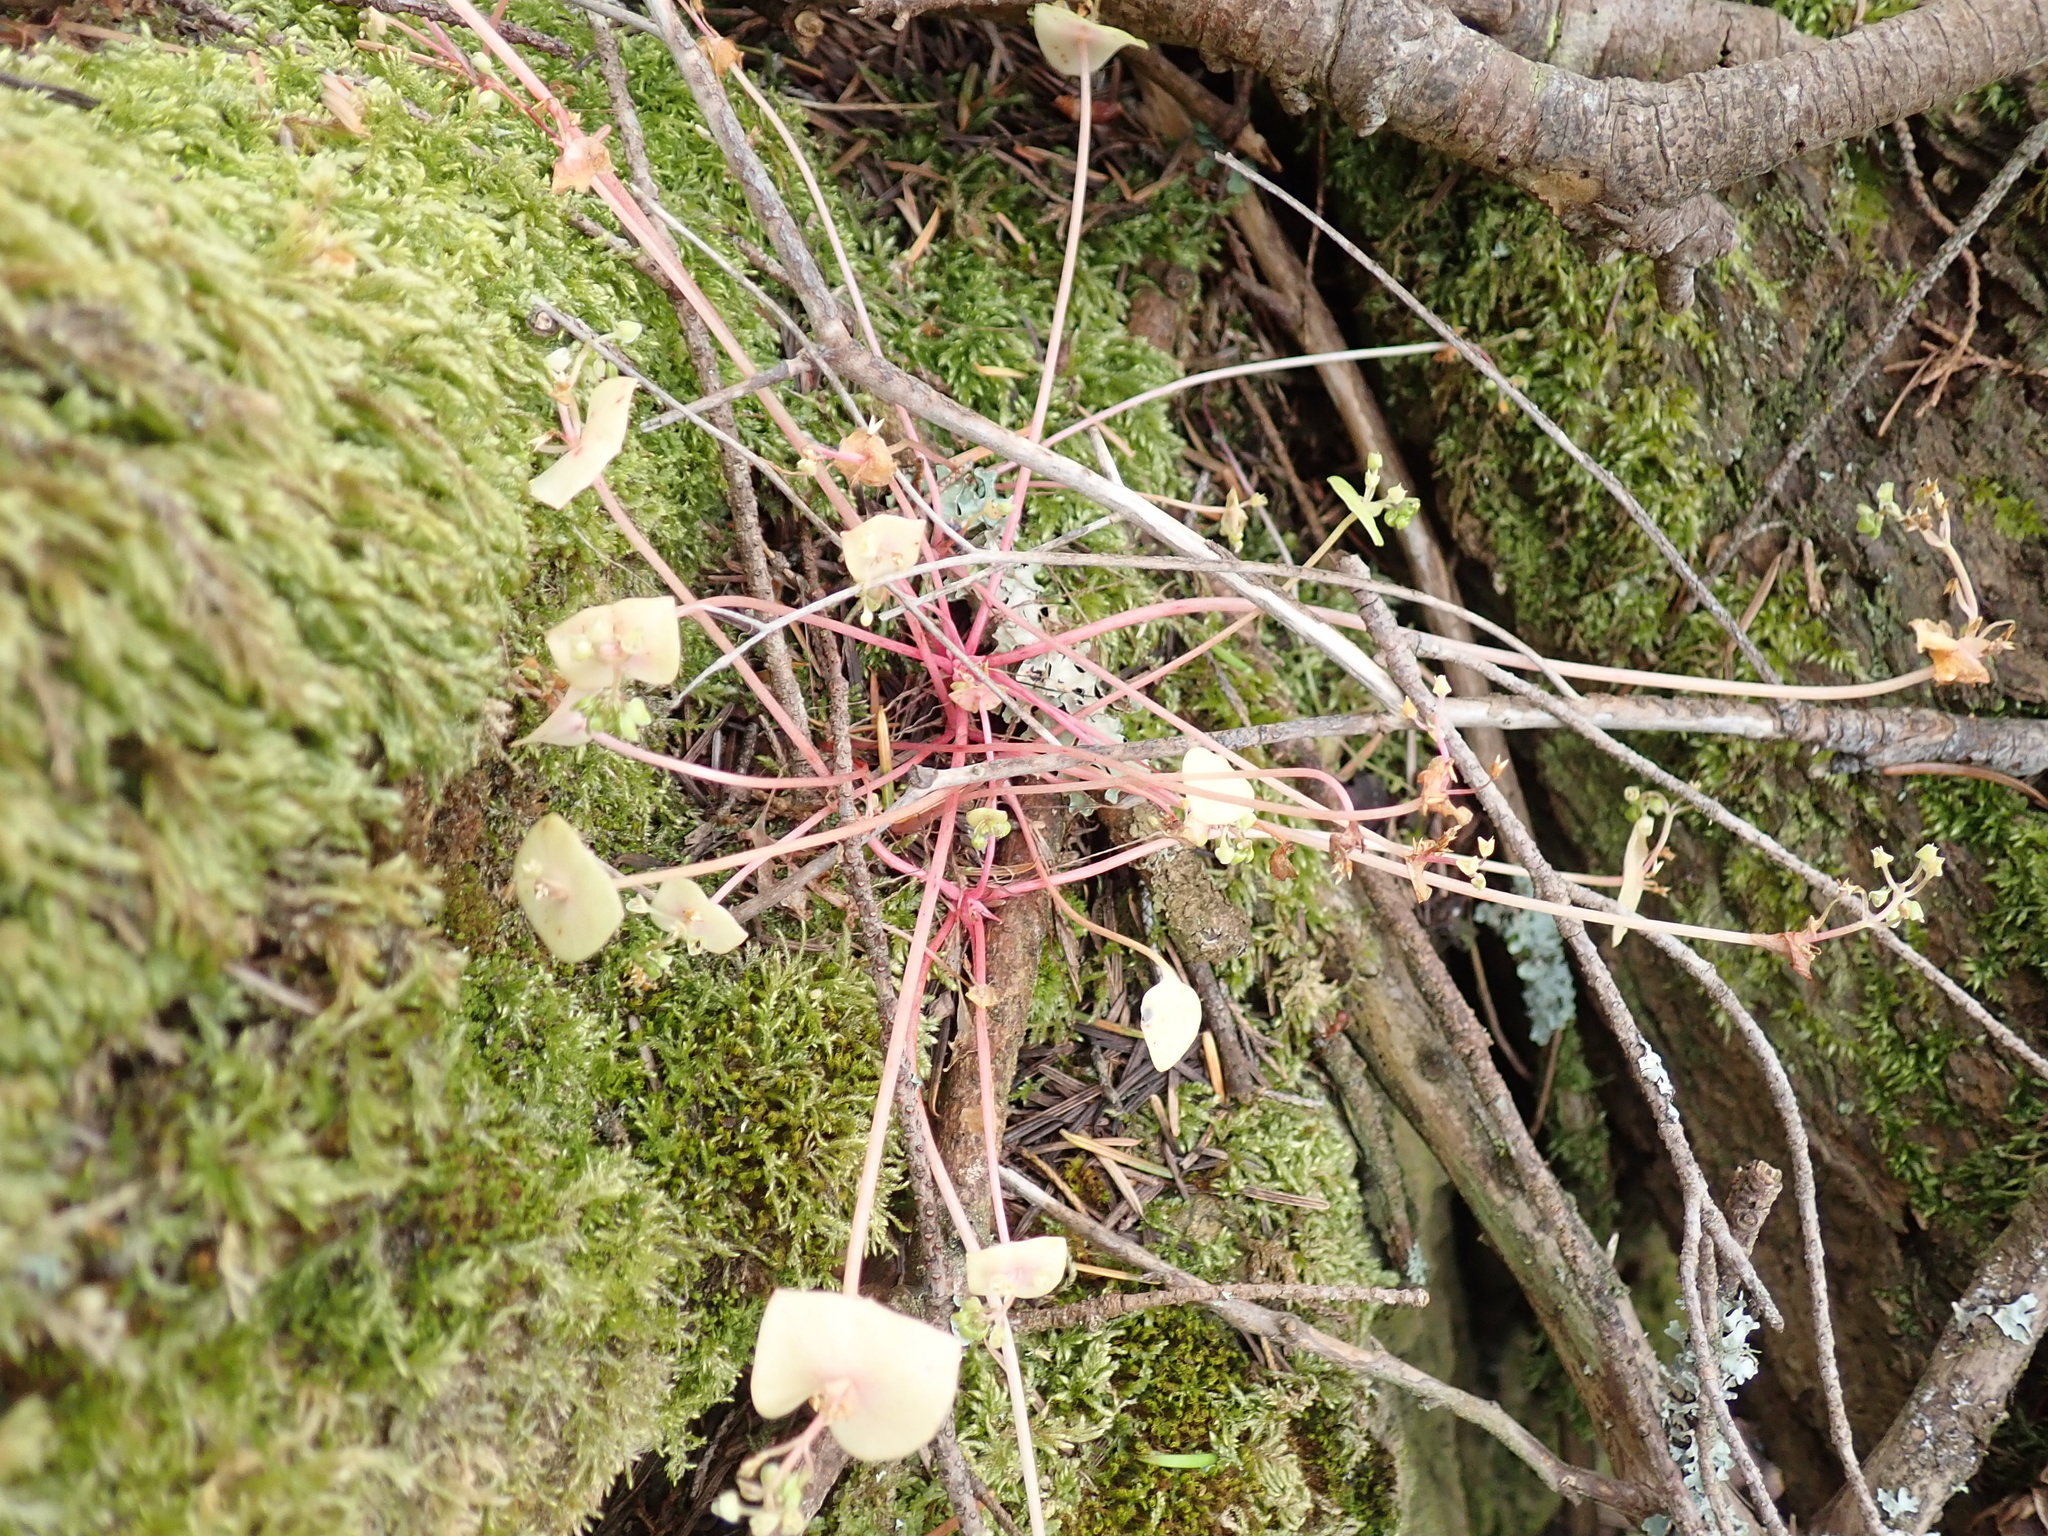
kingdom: Plantae
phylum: Tracheophyta
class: Magnoliopsida
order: Caryophyllales
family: Montiaceae
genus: Claytonia
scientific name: Claytonia perfoliata
